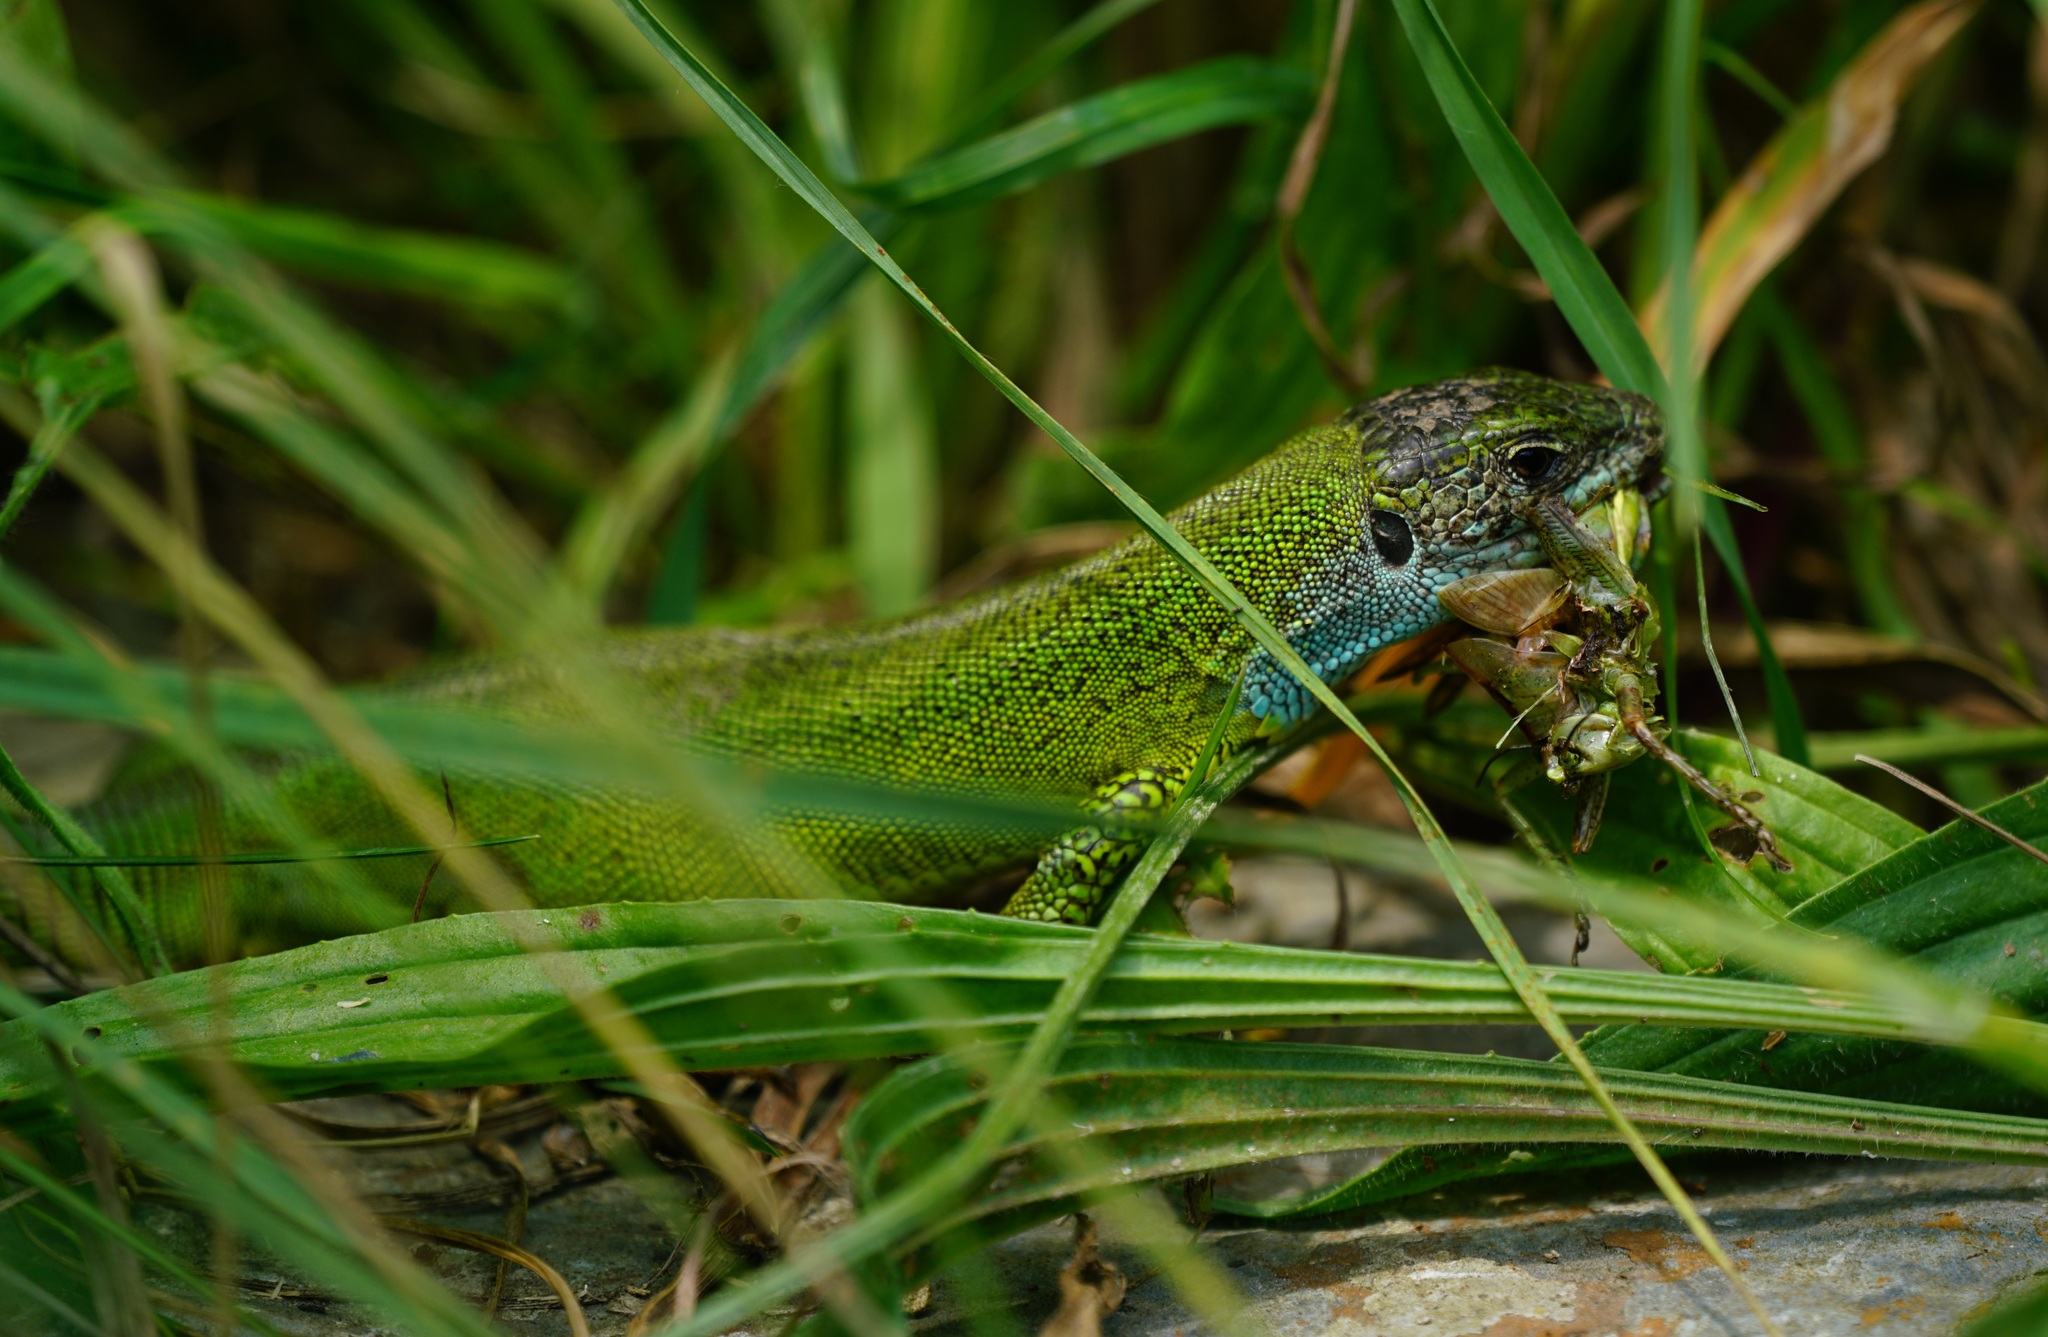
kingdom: Animalia
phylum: Chordata
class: Squamata
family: Lacertidae
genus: Lacerta
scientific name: Lacerta viridis
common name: European green lizard
